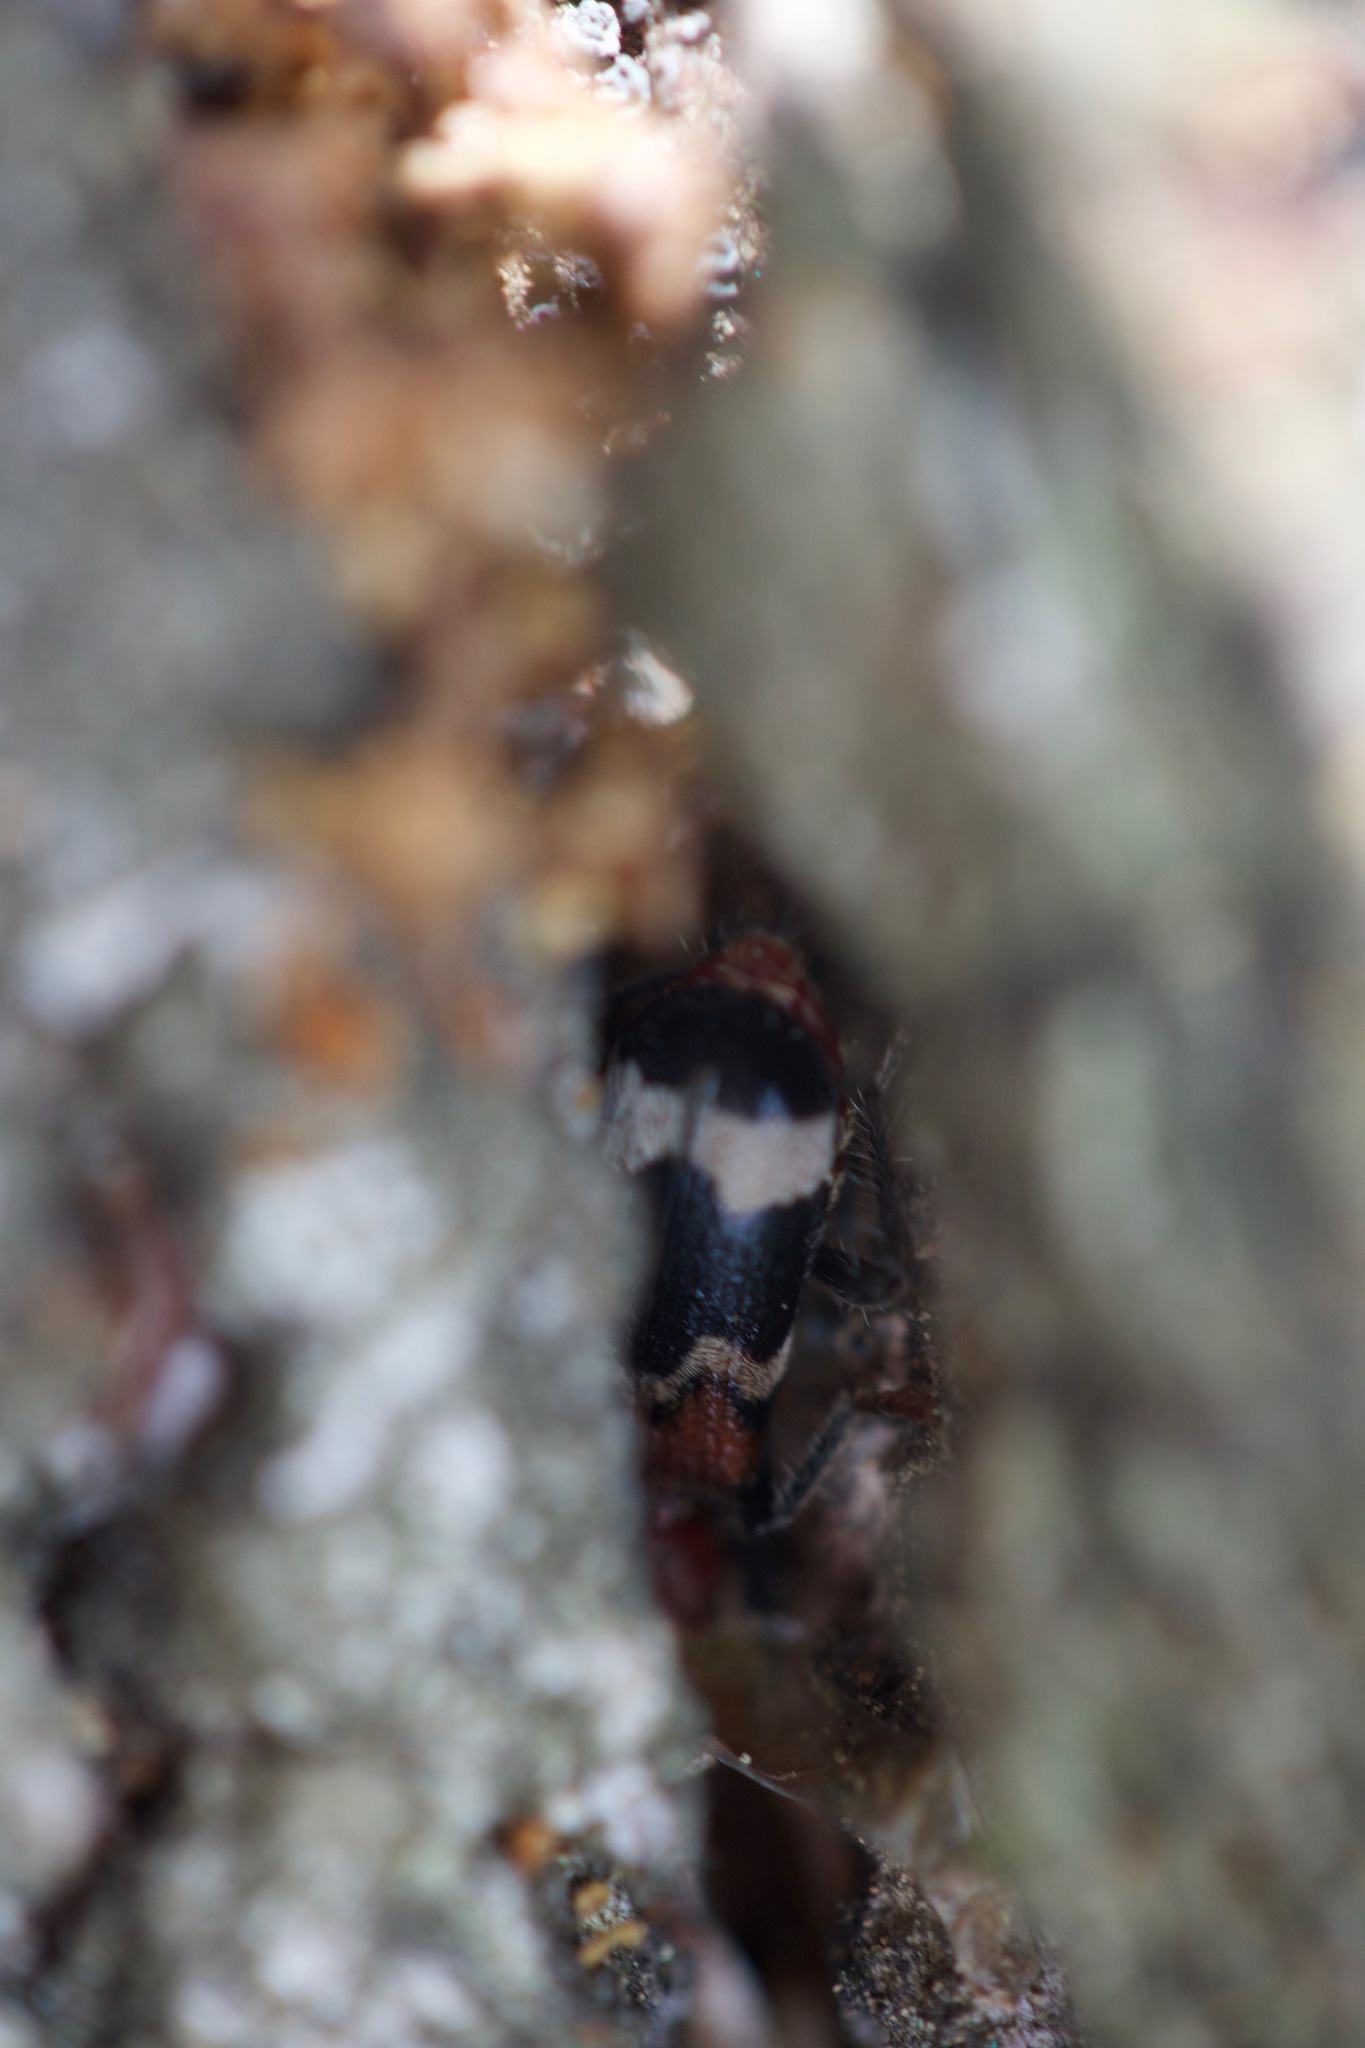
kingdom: Animalia
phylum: Arthropoda
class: Insecta
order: Coleoptera
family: Cleridae
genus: Thanasimus
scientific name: Thanasimus formicarius
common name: Ant beetle
